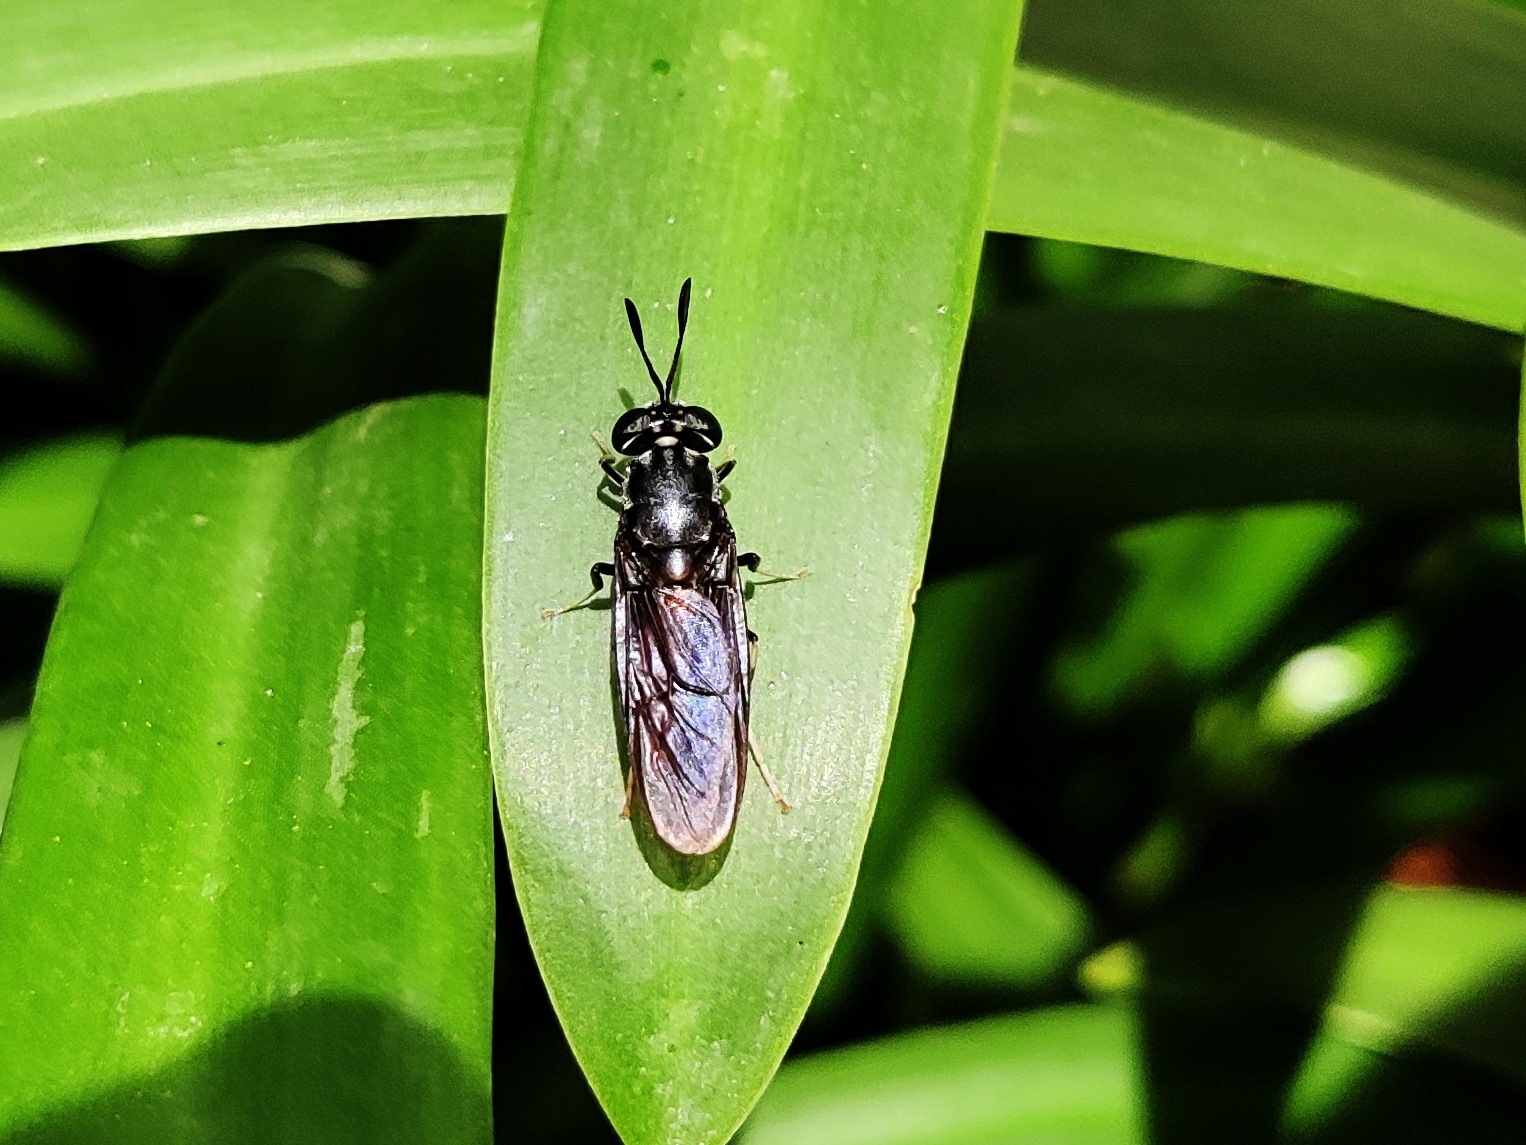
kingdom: Animalia
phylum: Arthropoda
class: Insecta
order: Diptera
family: Stratiomyidae
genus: Hermetia
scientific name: Hermetia illucens
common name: Black soldier fly
